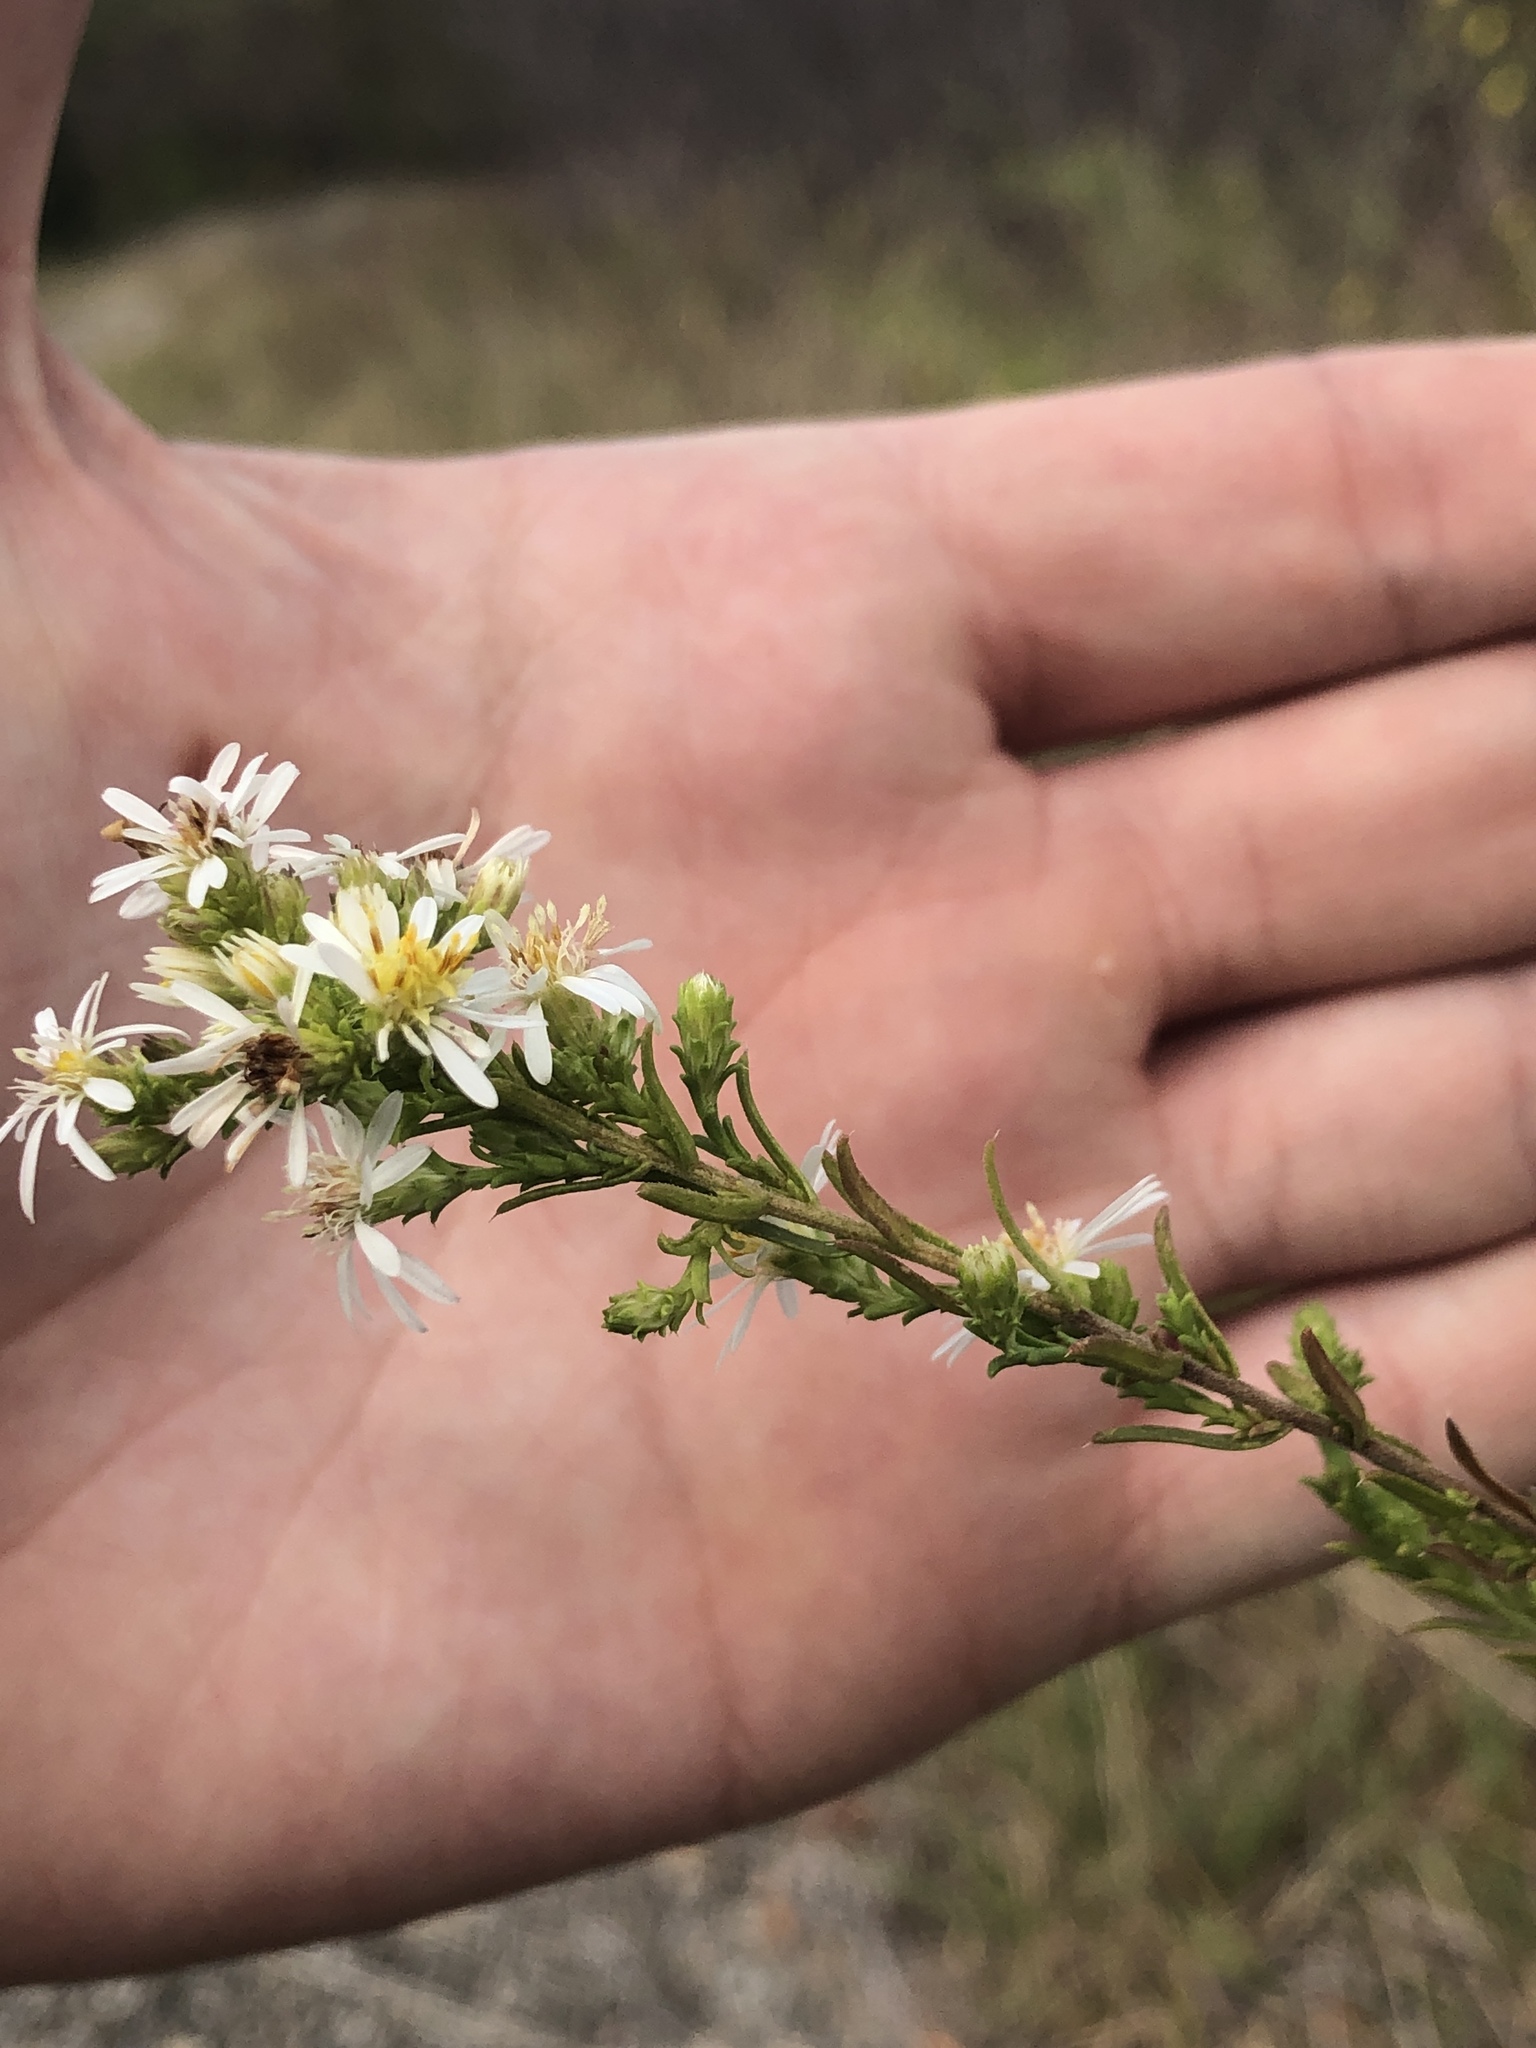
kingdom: Plantae
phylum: Tracheophyta
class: Magnoliopsida
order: Asterales
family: Asteraceae
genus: Symphyotrichum
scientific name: Symphyotrichum ericoides
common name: Heath aster
